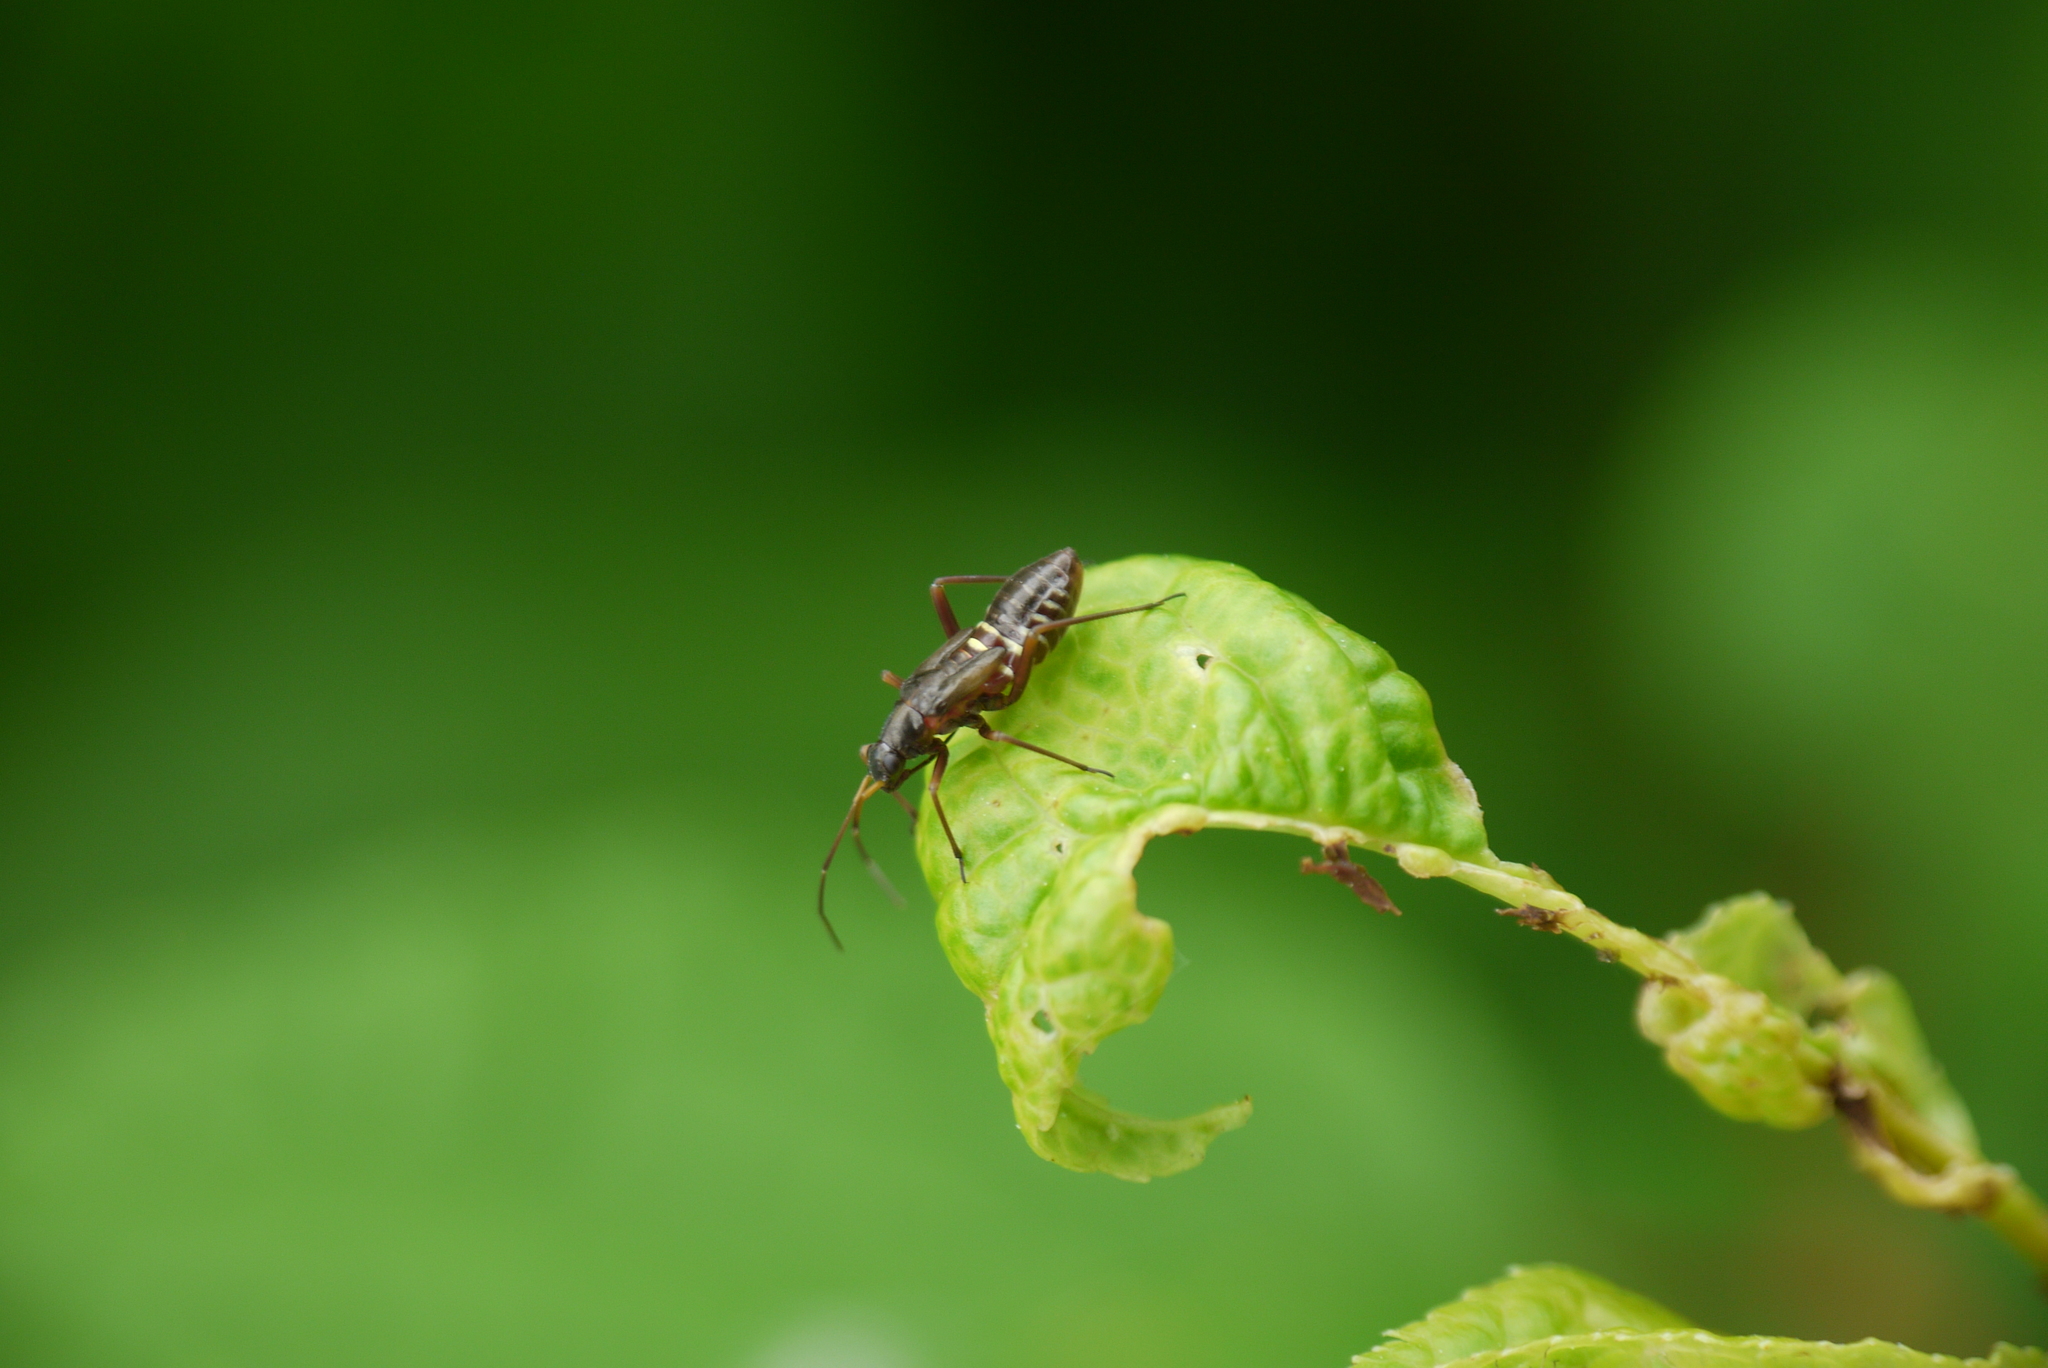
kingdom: Animalia
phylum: Arthropoda
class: Insecta
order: Hemiptera
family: Miridae
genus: Miris
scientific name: Miris striatus
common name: Fine streaked bugkin
